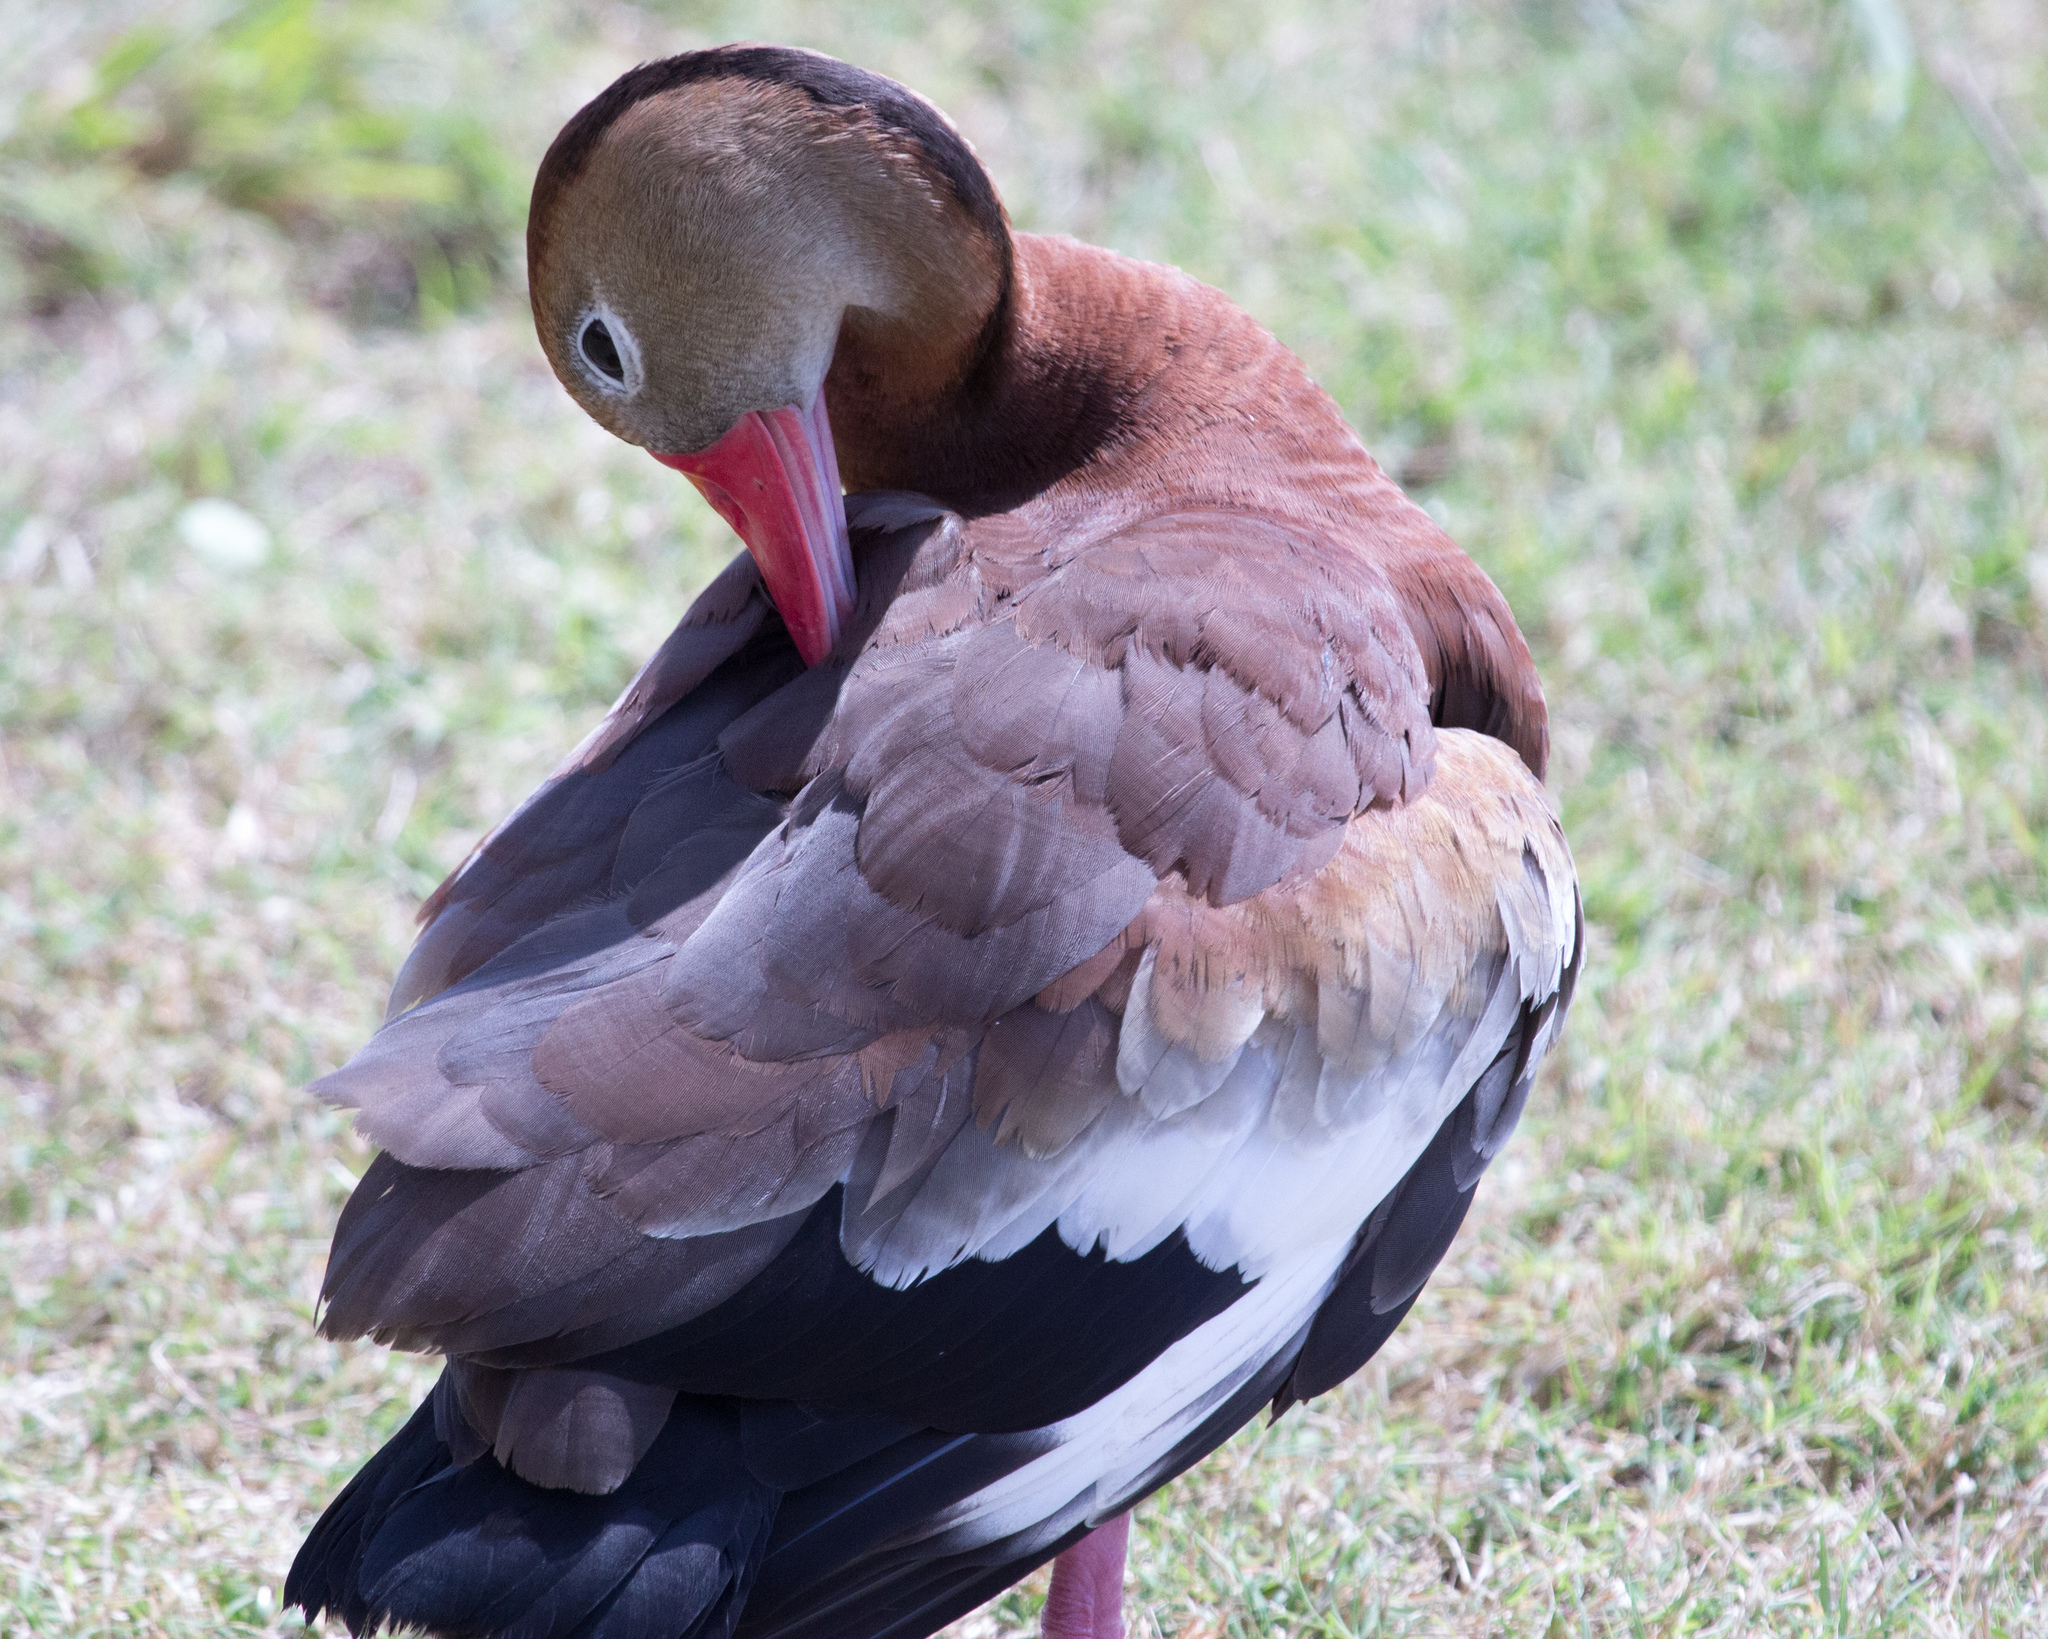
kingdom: Animalia
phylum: Chordata
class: Aves
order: Anseriformes
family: Anatidae
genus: Dendrocygna
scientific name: Dendrocygna autumnalis
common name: Black-bellied whistling duck
